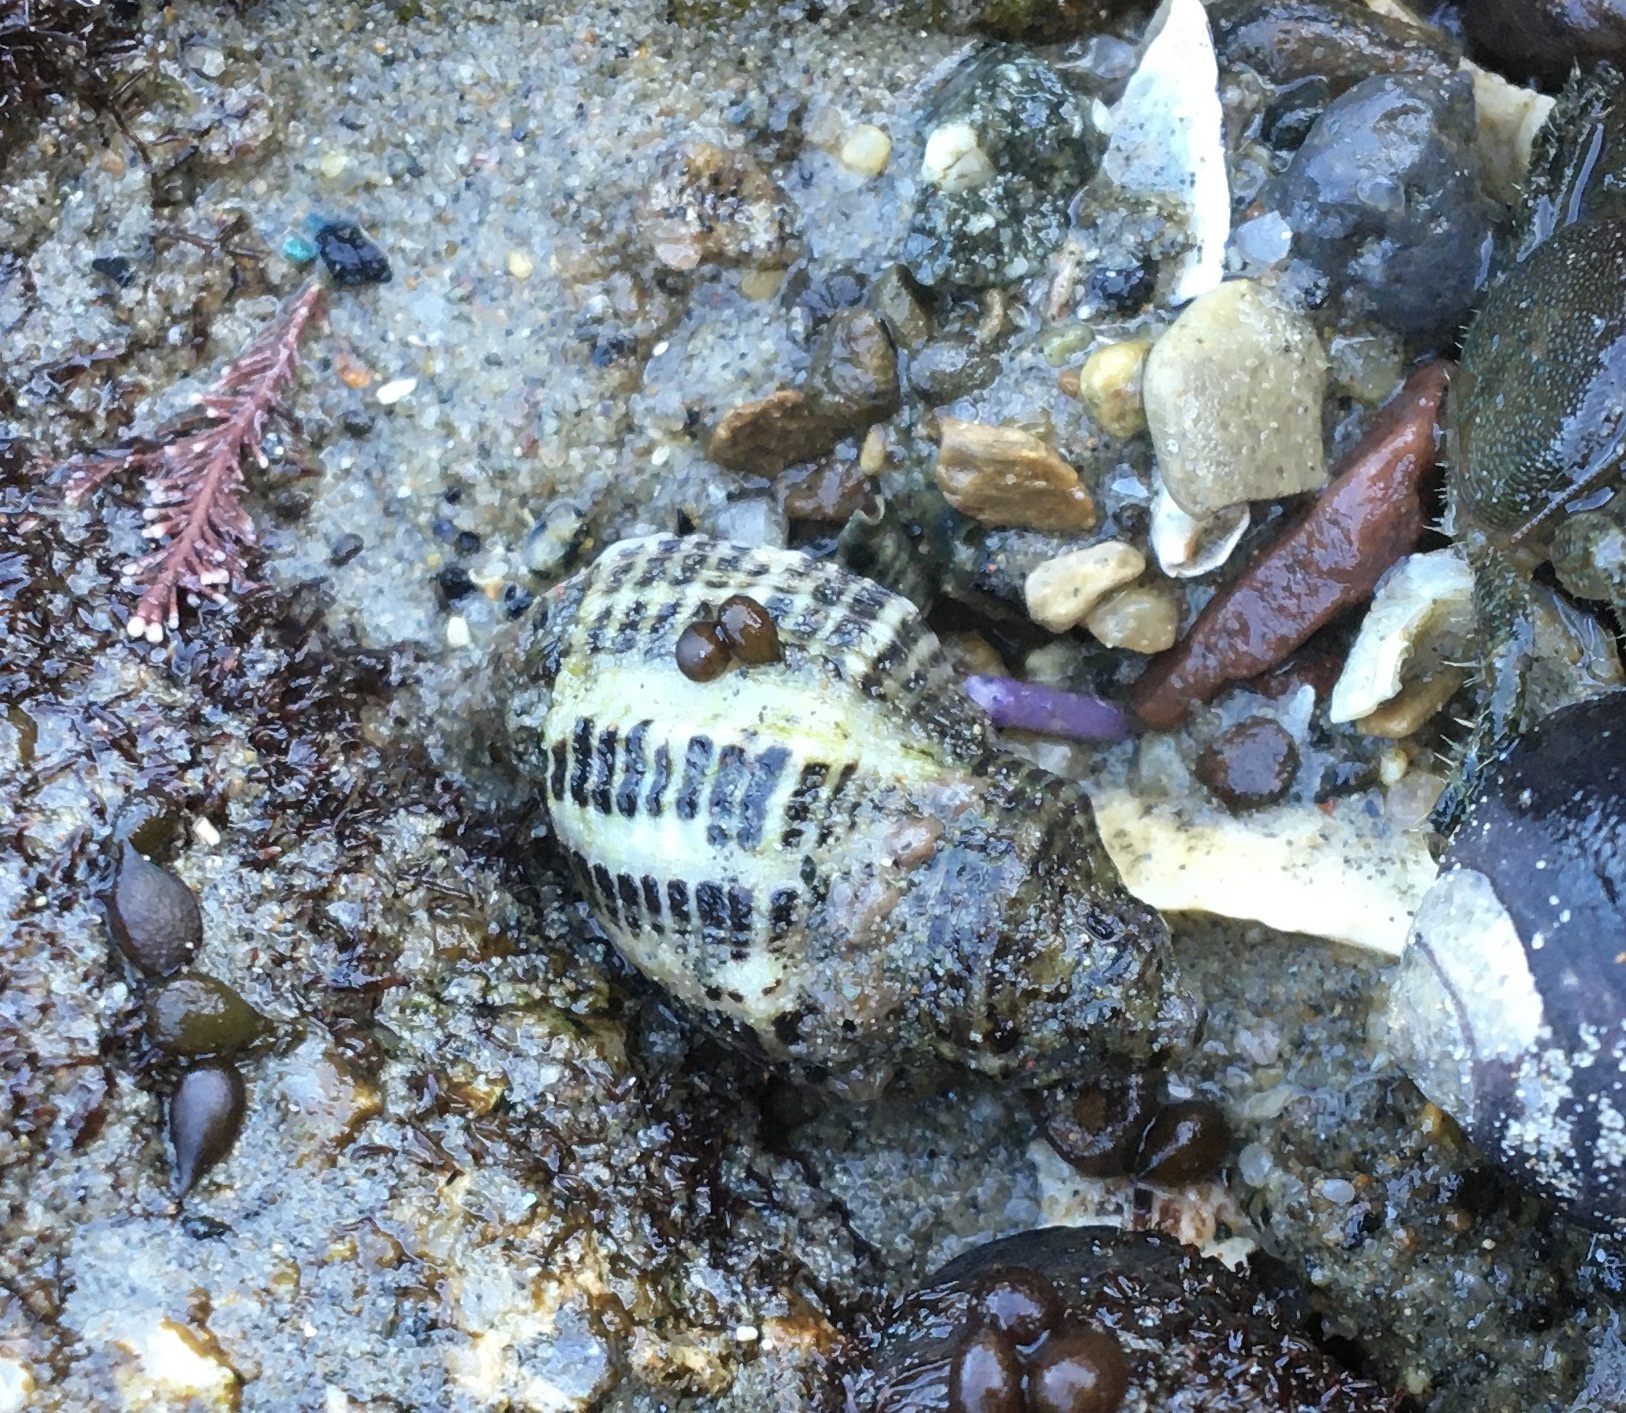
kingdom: Animalia
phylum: Mollusca
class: Gastropoda
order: Neogastropoda
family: Muricidae
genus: Acanthinucella
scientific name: Acanthinucella spirata
